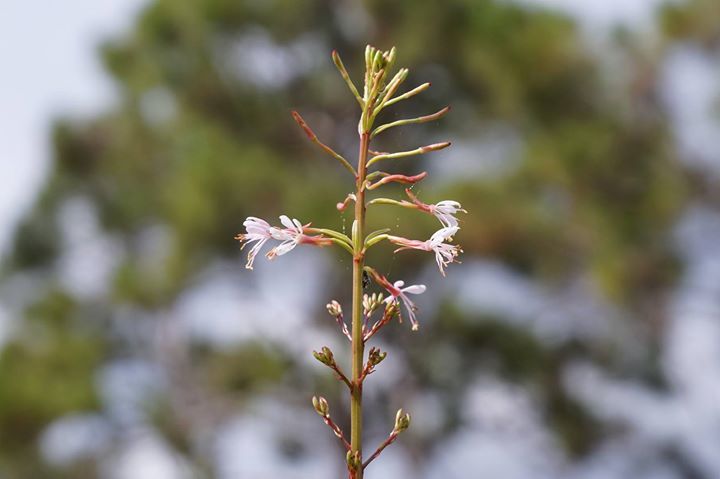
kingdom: Plantae
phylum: Tracheophyta
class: Magnoliopsida
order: Myrtales
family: Onagraceae
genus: Oenothera
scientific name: Oenothera simulans
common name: Southern beeblossom
